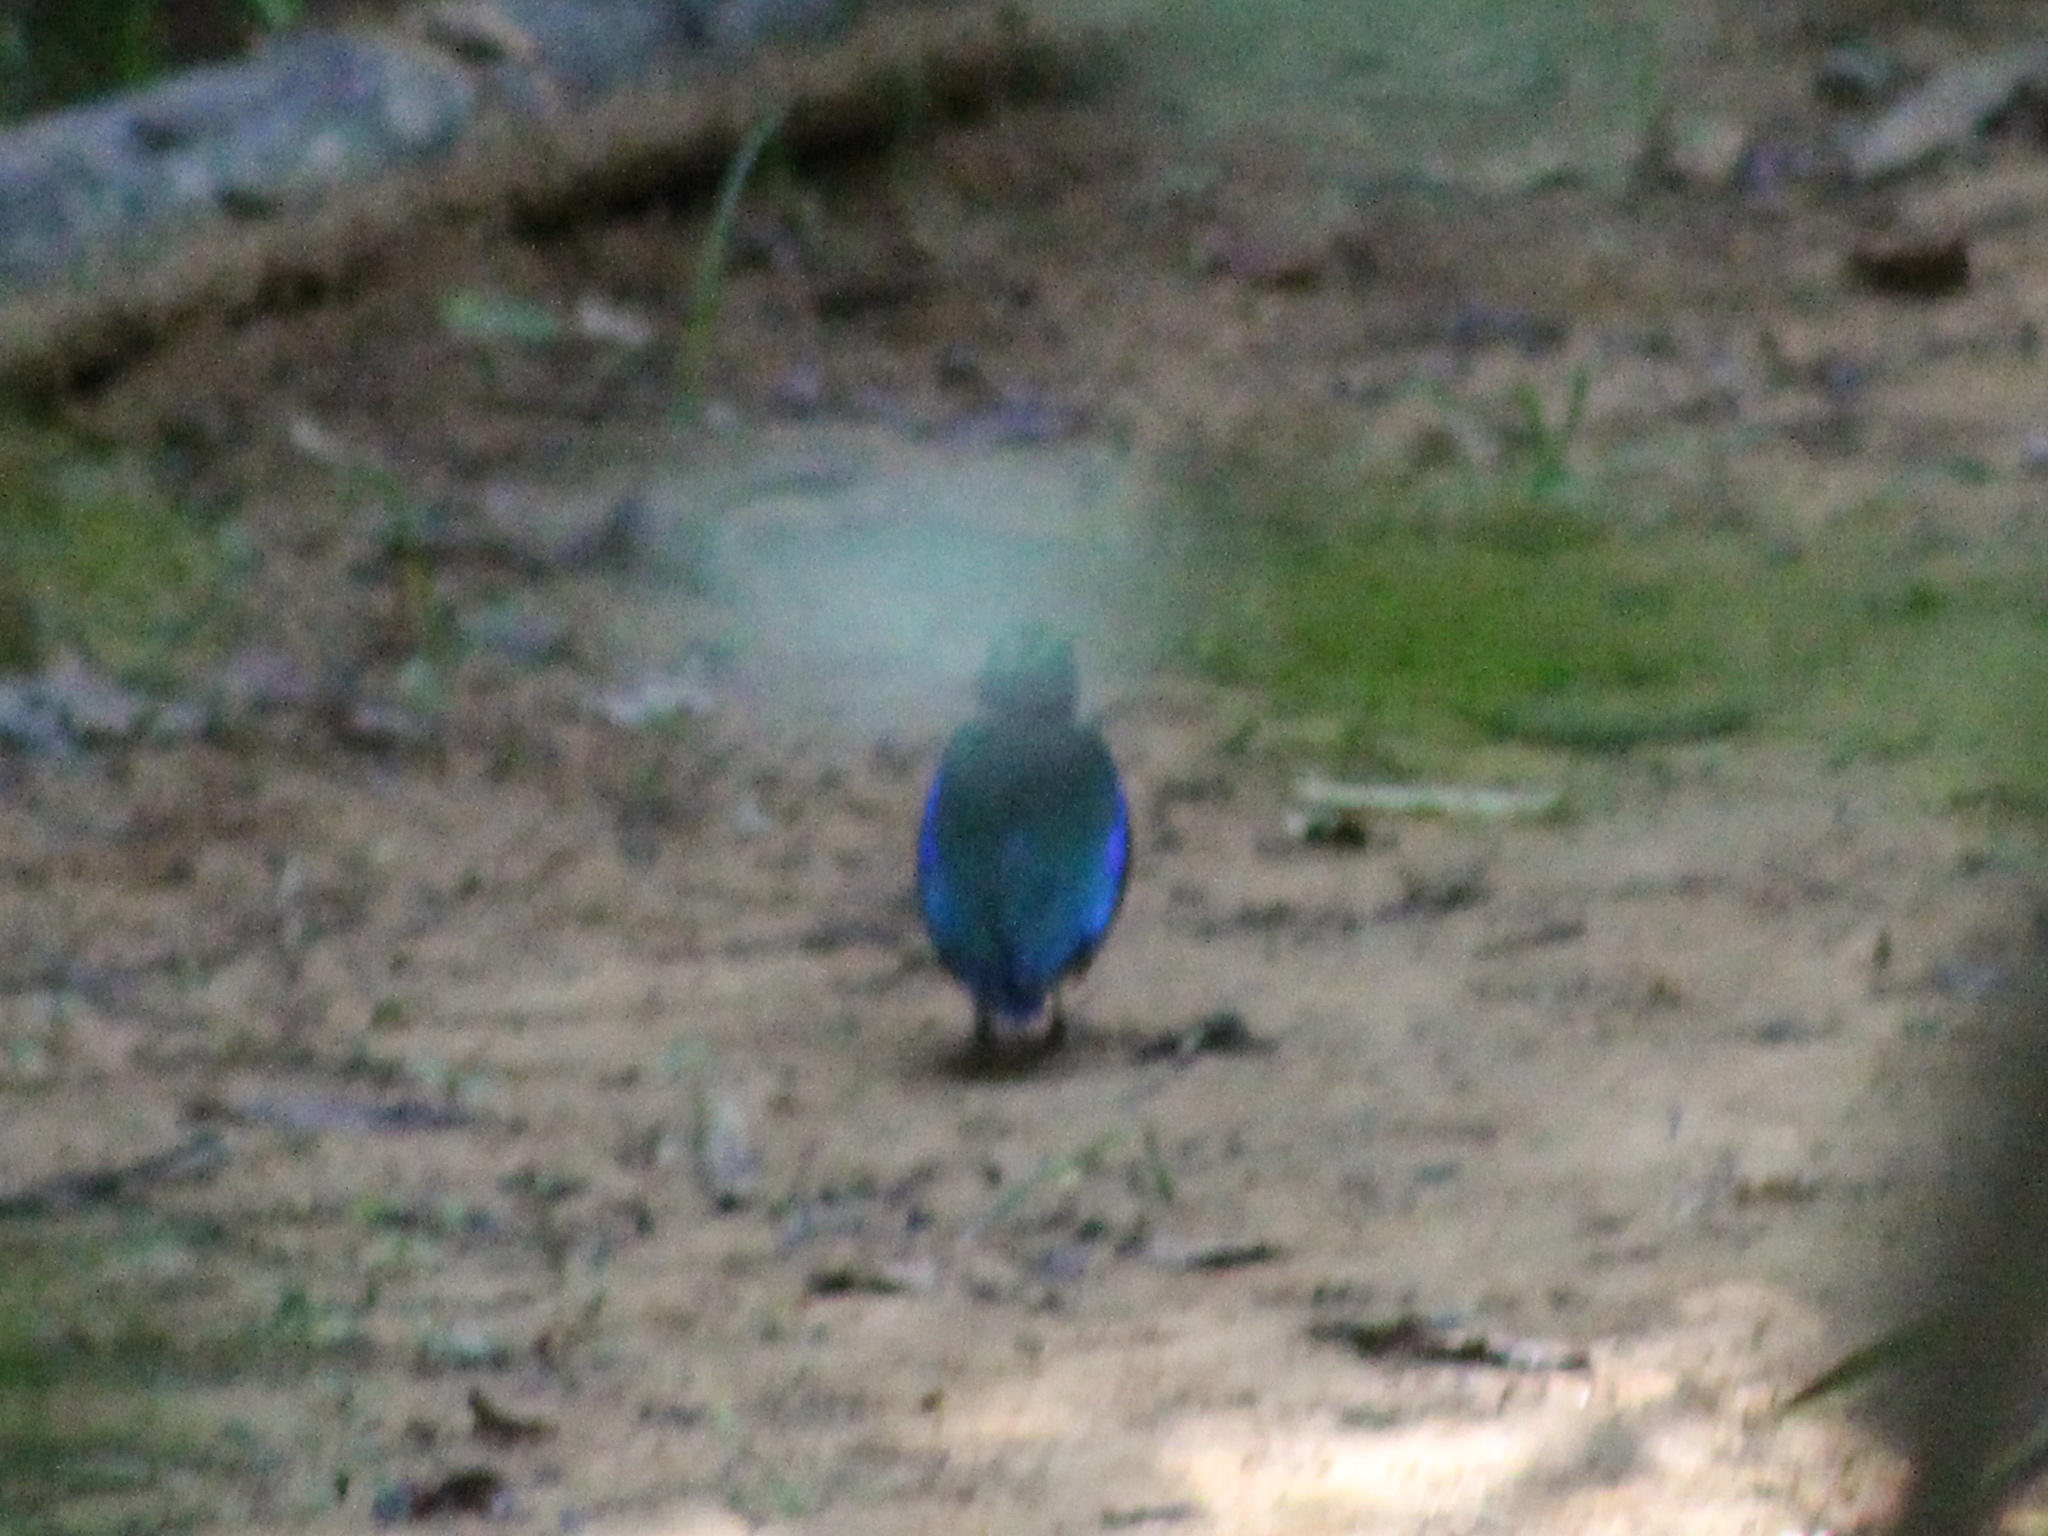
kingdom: Animalia
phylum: Chordata
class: Aves
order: Passeriformes
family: Pittidae
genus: Pitta
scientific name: Pitta moluccensis
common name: Blue-winged pitta
